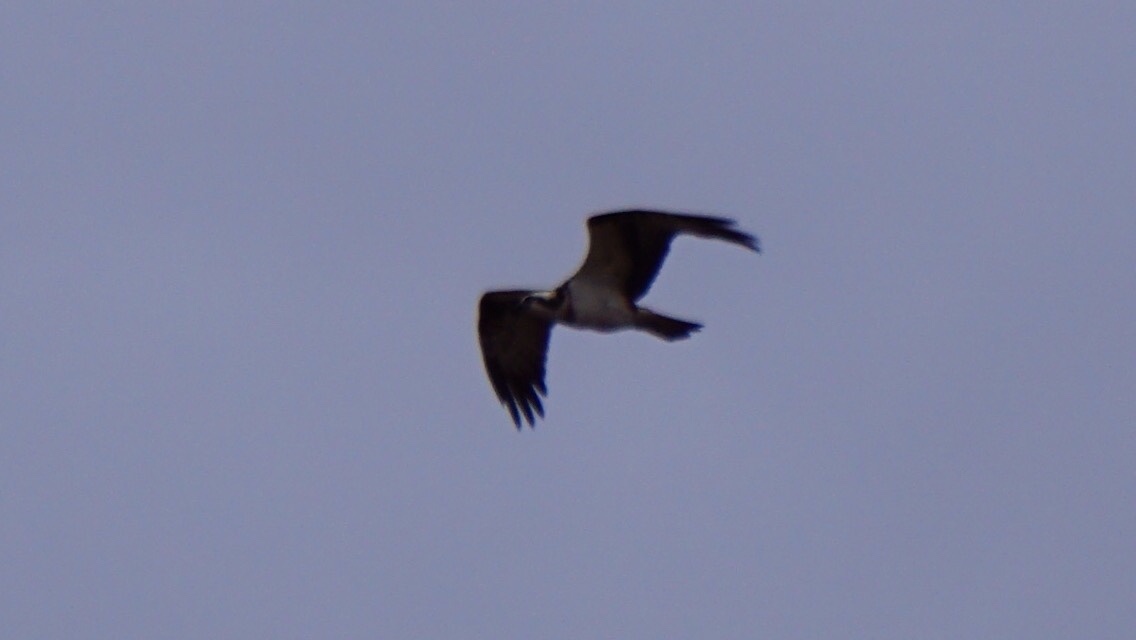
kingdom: Animalia
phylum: Chordata
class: Aves
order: Accipitriformes
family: Pandionidae
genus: Pandion
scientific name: Pandion haliaetus
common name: Osprey
